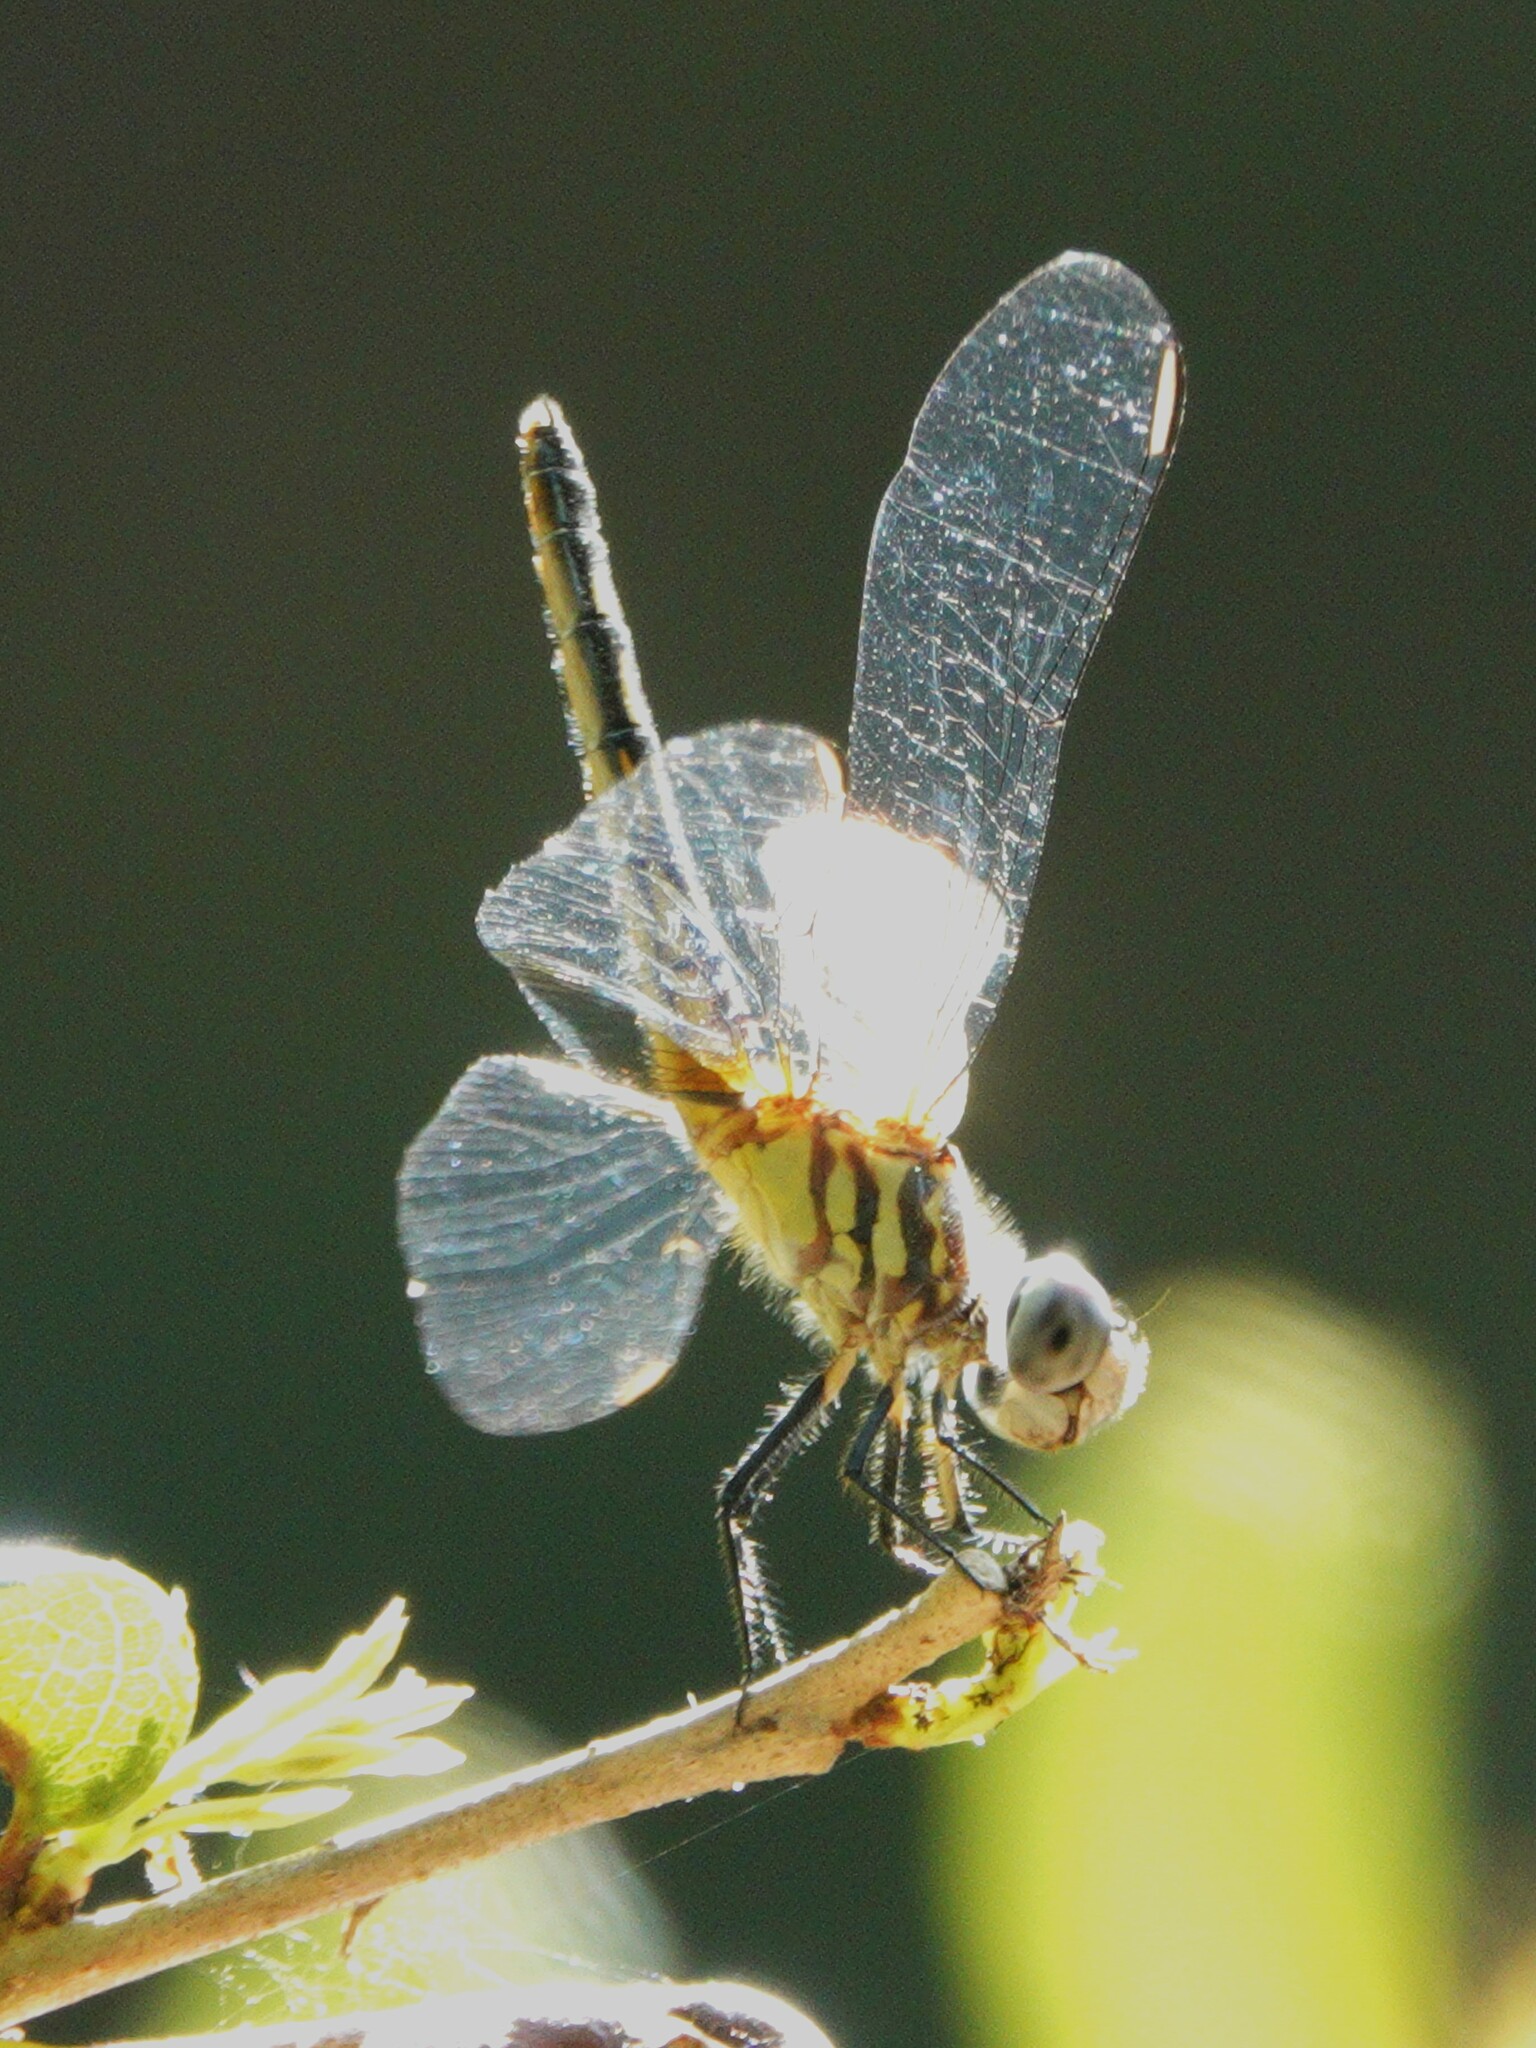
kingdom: Animalia
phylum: Arthropoda
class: Insecta
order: Odonata
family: Libellulidae
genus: Pachydiplax
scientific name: Pachydiplax longipennis
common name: Blue dasher
